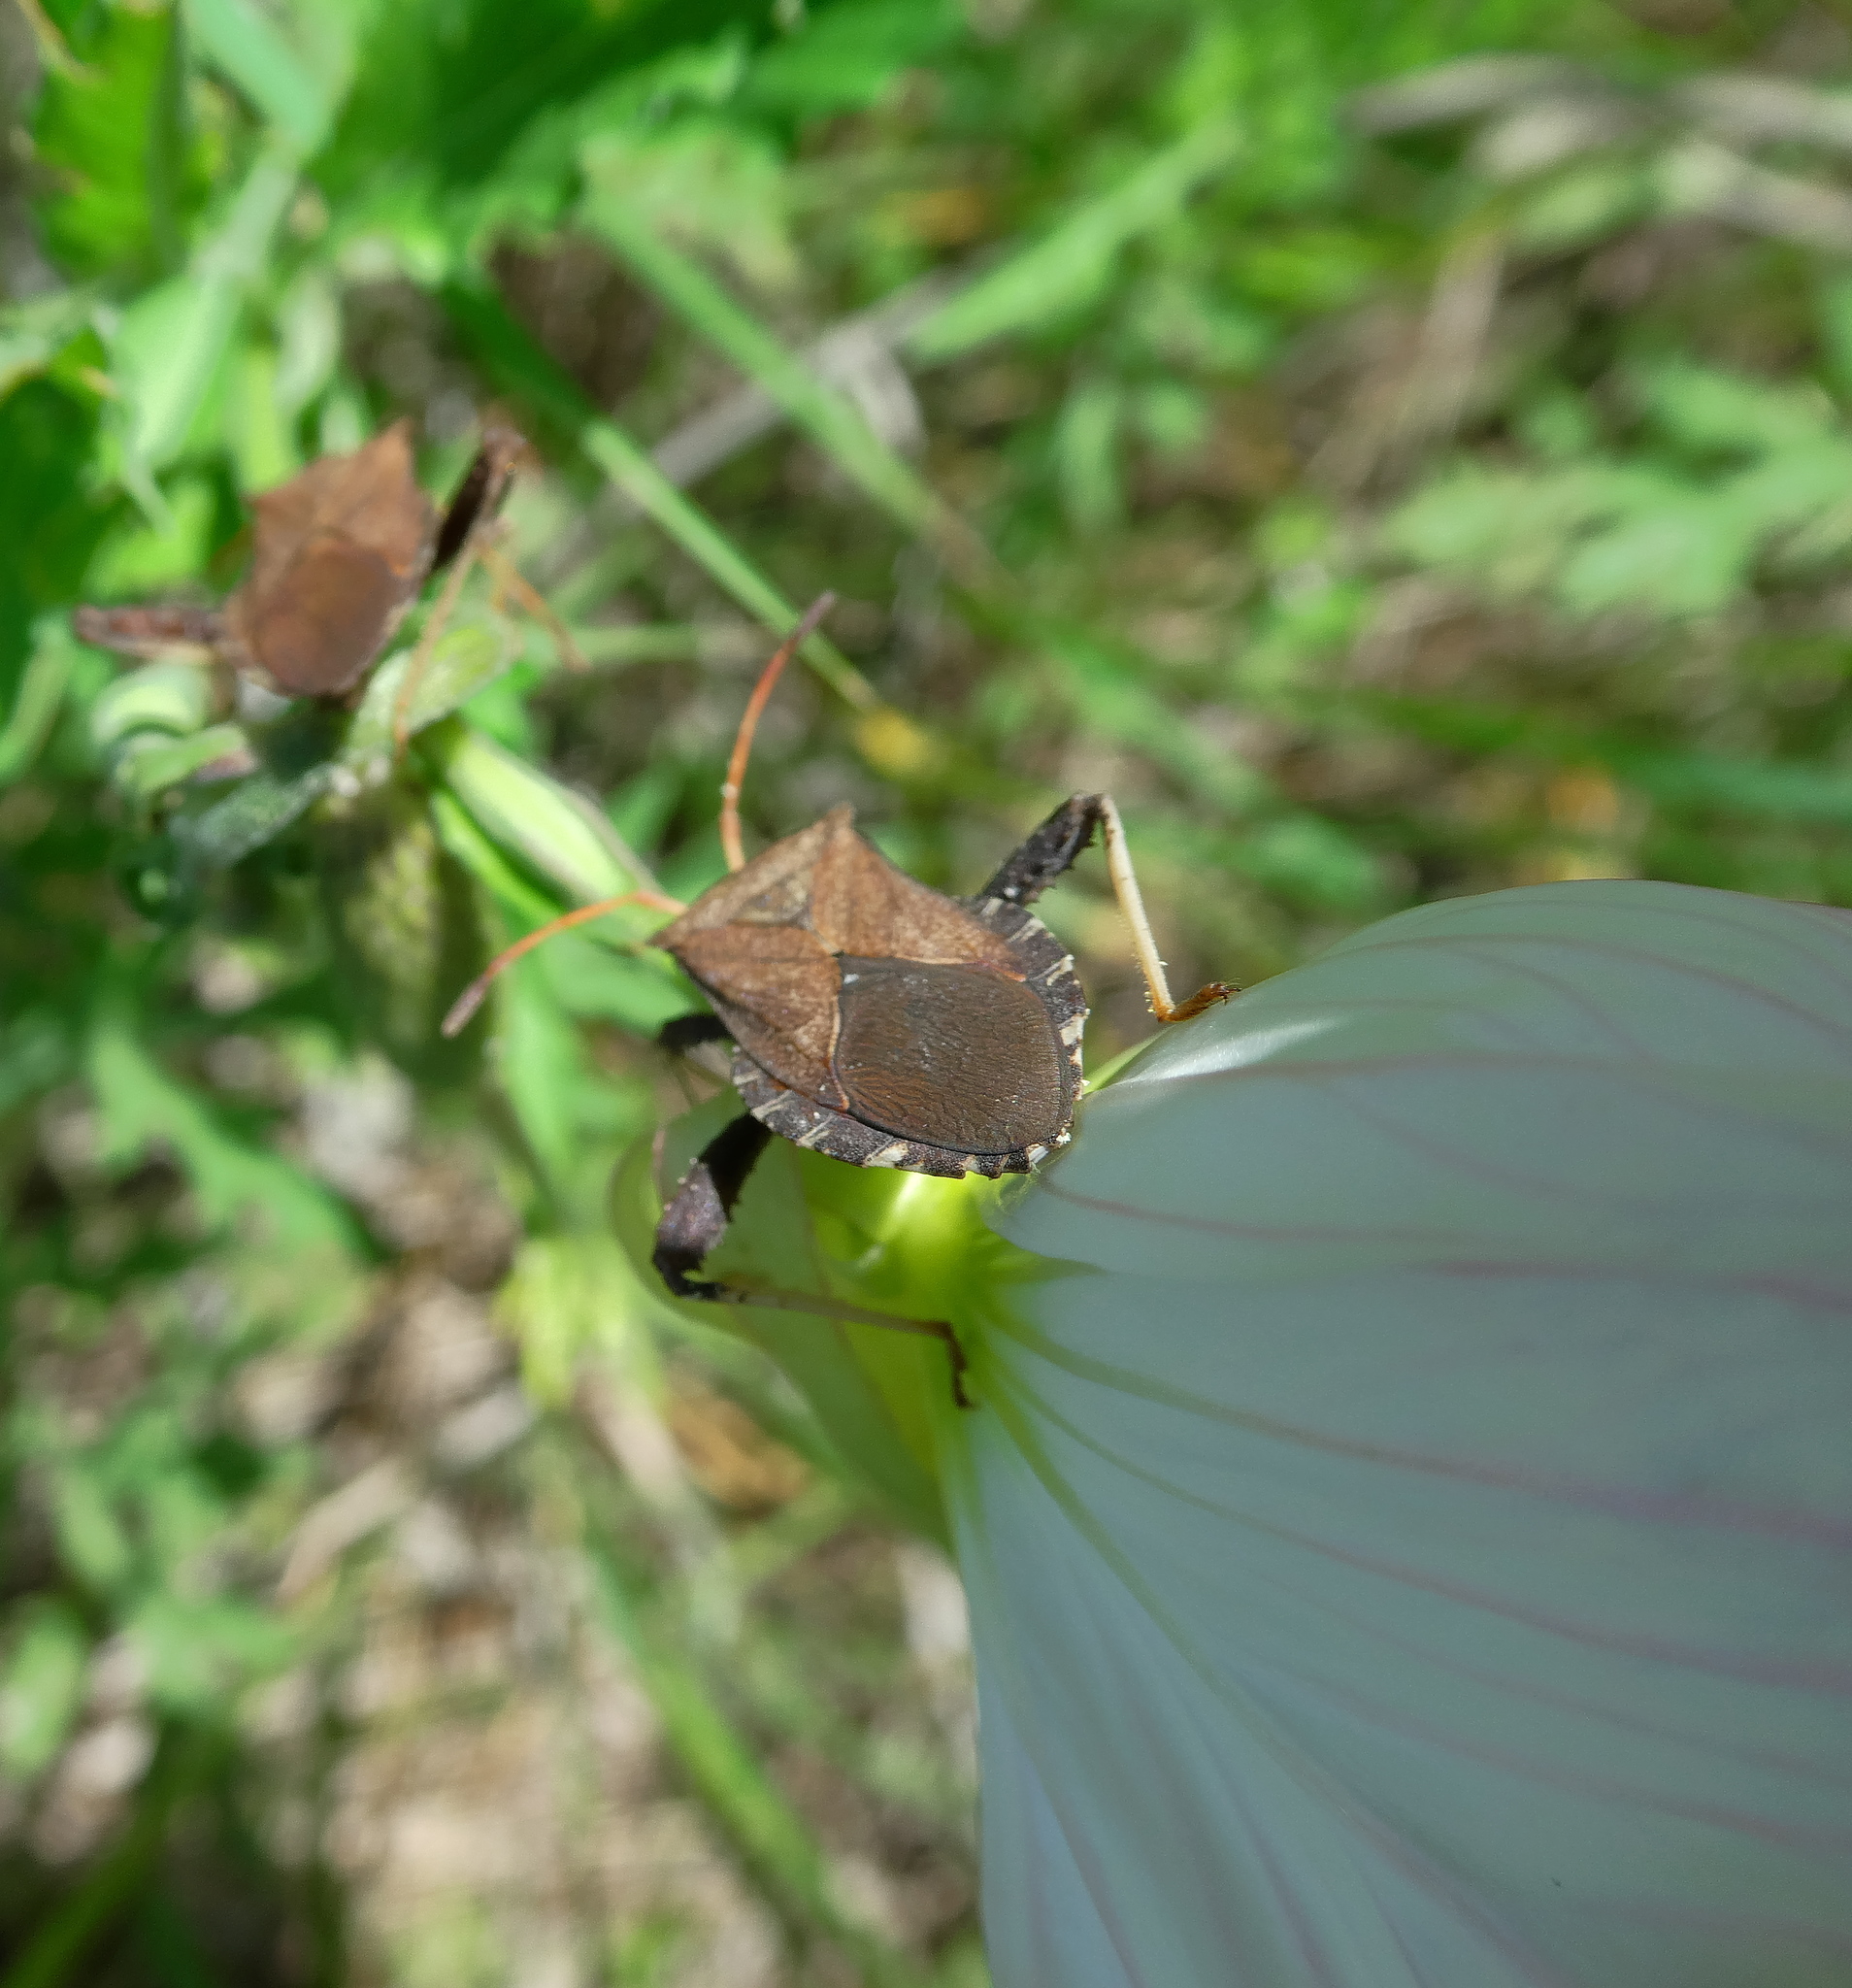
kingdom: Animalia
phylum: Arthropoda
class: Insecta
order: Hemiptera
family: Coreidae
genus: Euthochtha
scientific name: Euthochtha galeator
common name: Helmeted squash bug
